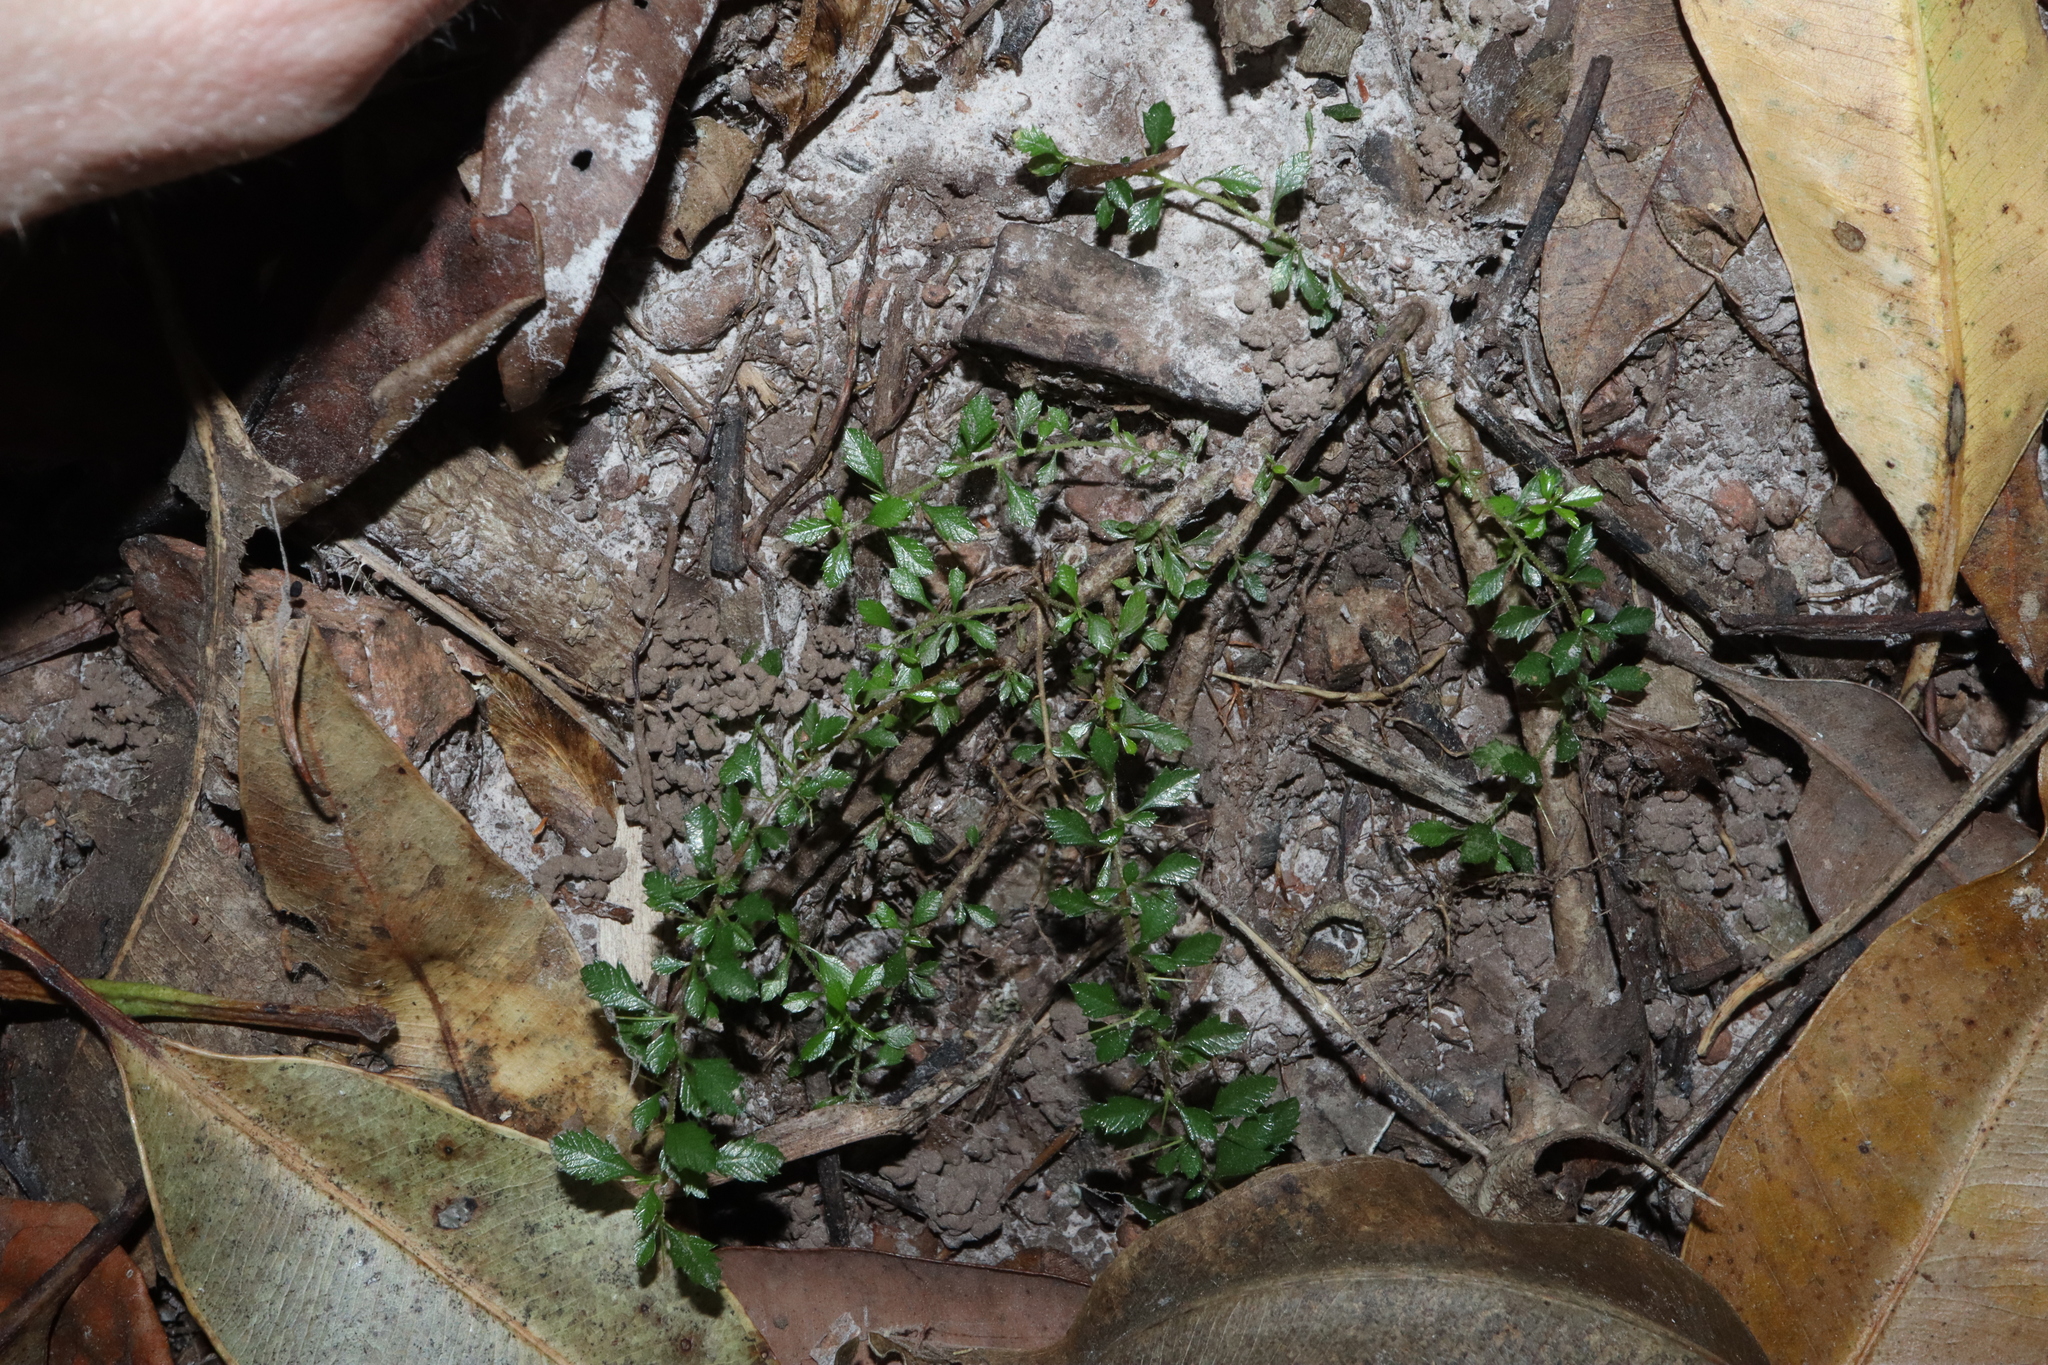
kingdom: Plantae
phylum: Tracheophyta
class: Magnoliopsida
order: Apiales
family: Pittosporaceae
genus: Bursaria
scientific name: Bursaria tenuifolia
